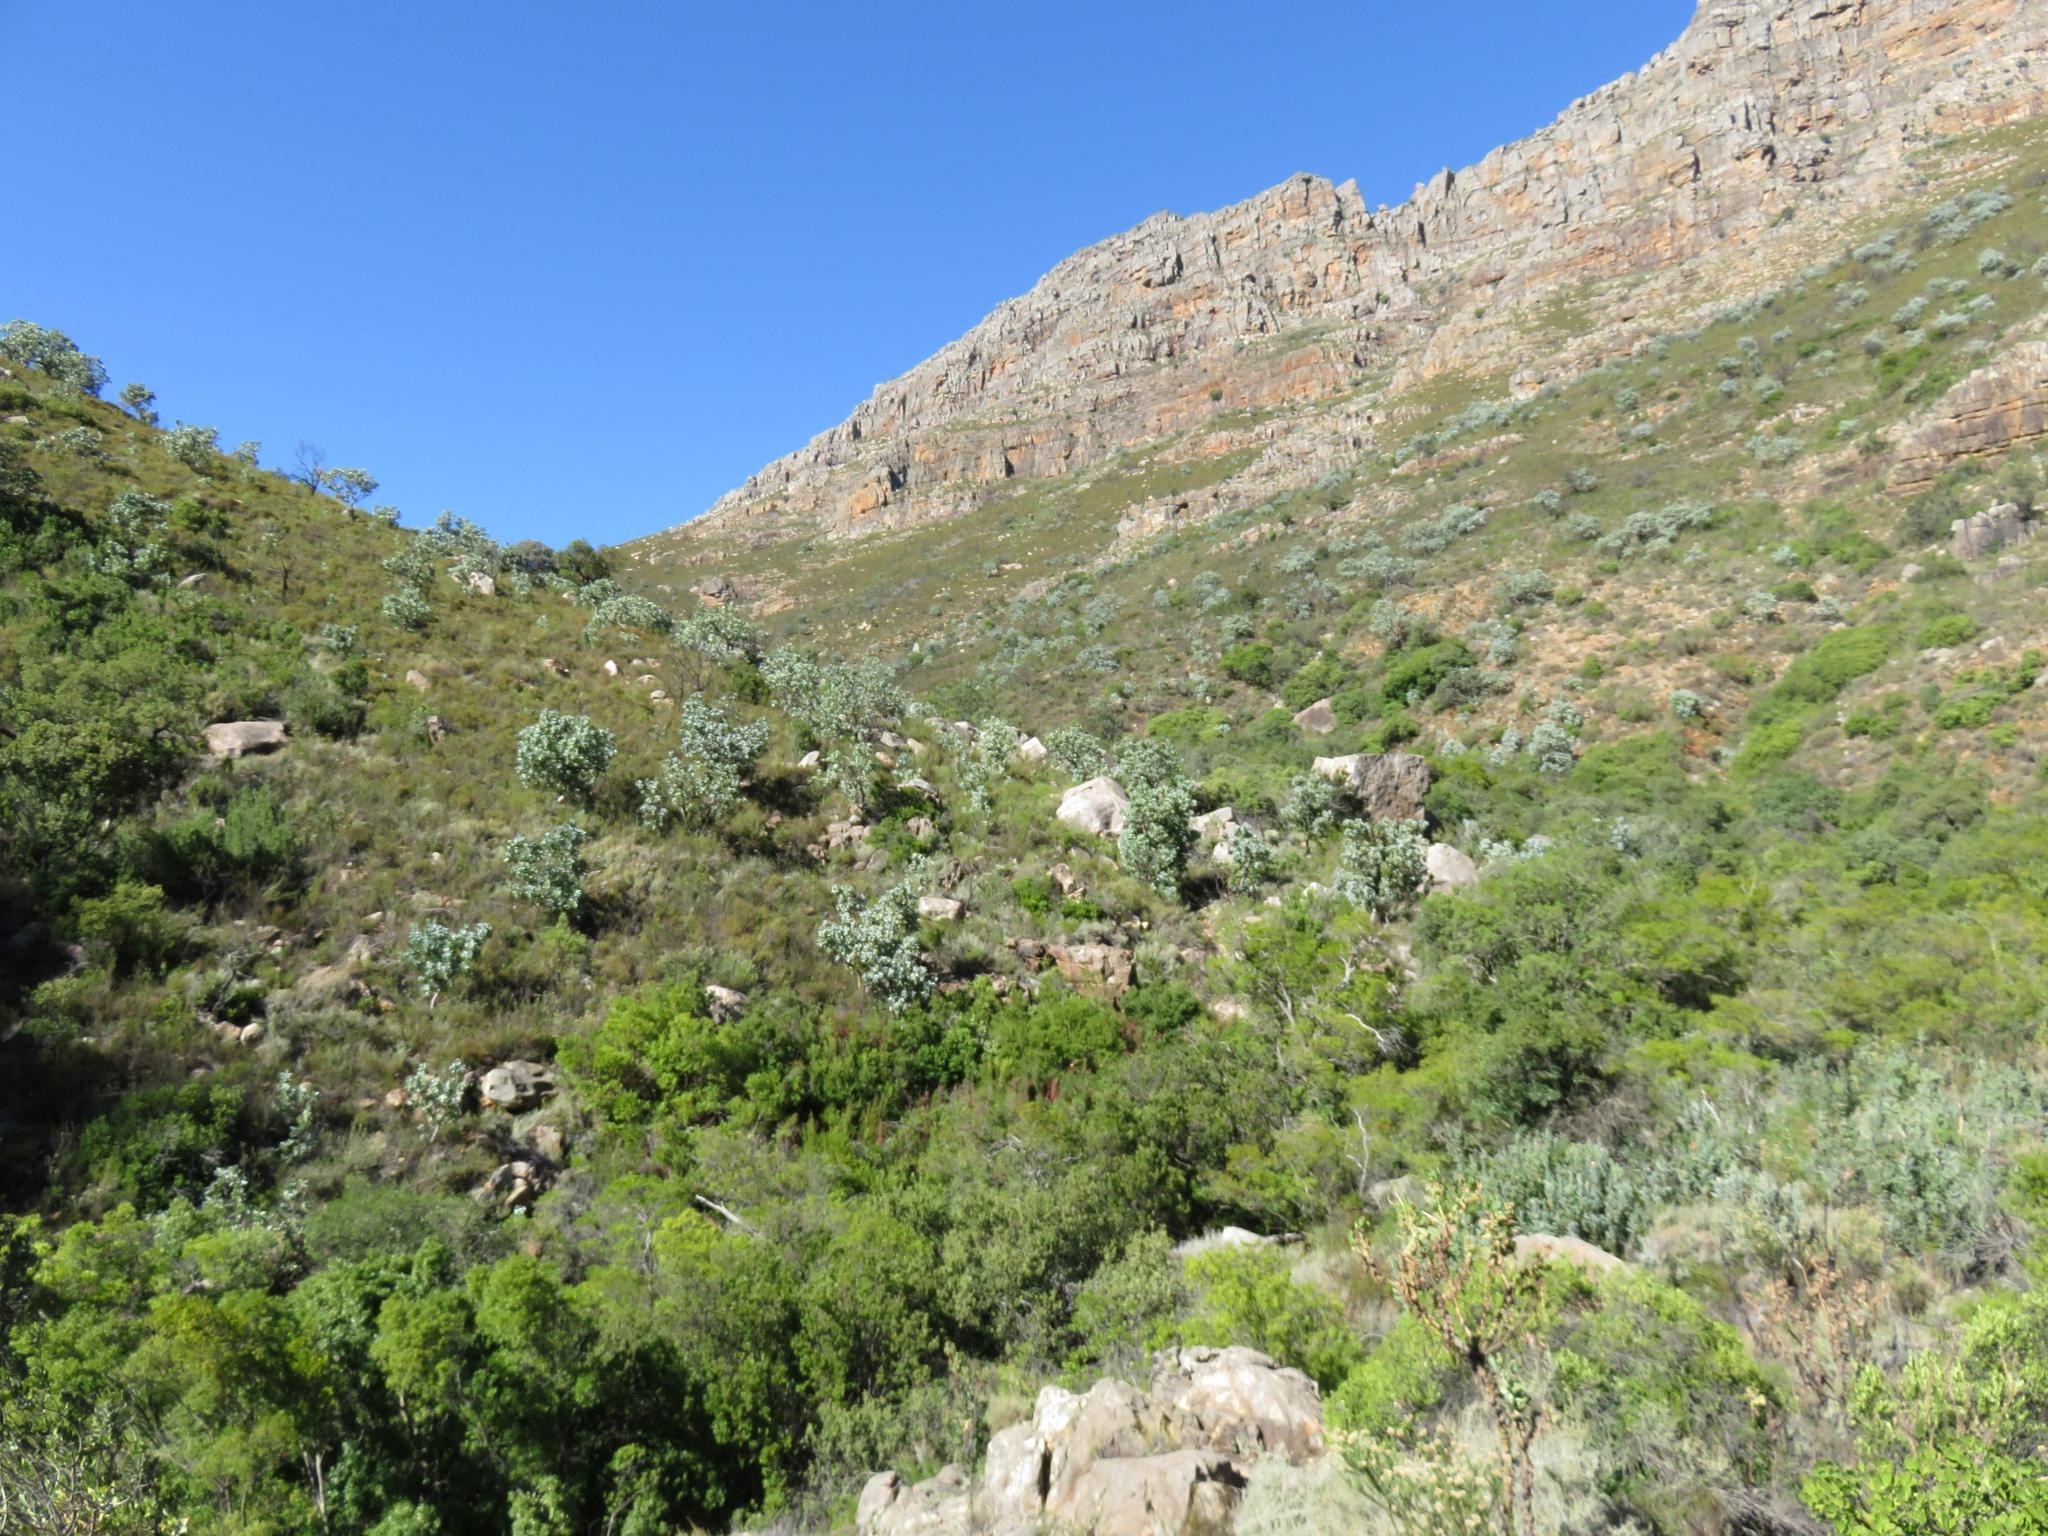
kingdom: Plantae
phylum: Tracheophyta
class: Magnoliopsida
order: Proteales
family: Proteaceae
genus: Protea
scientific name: Protea nitida
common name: Tree protea
